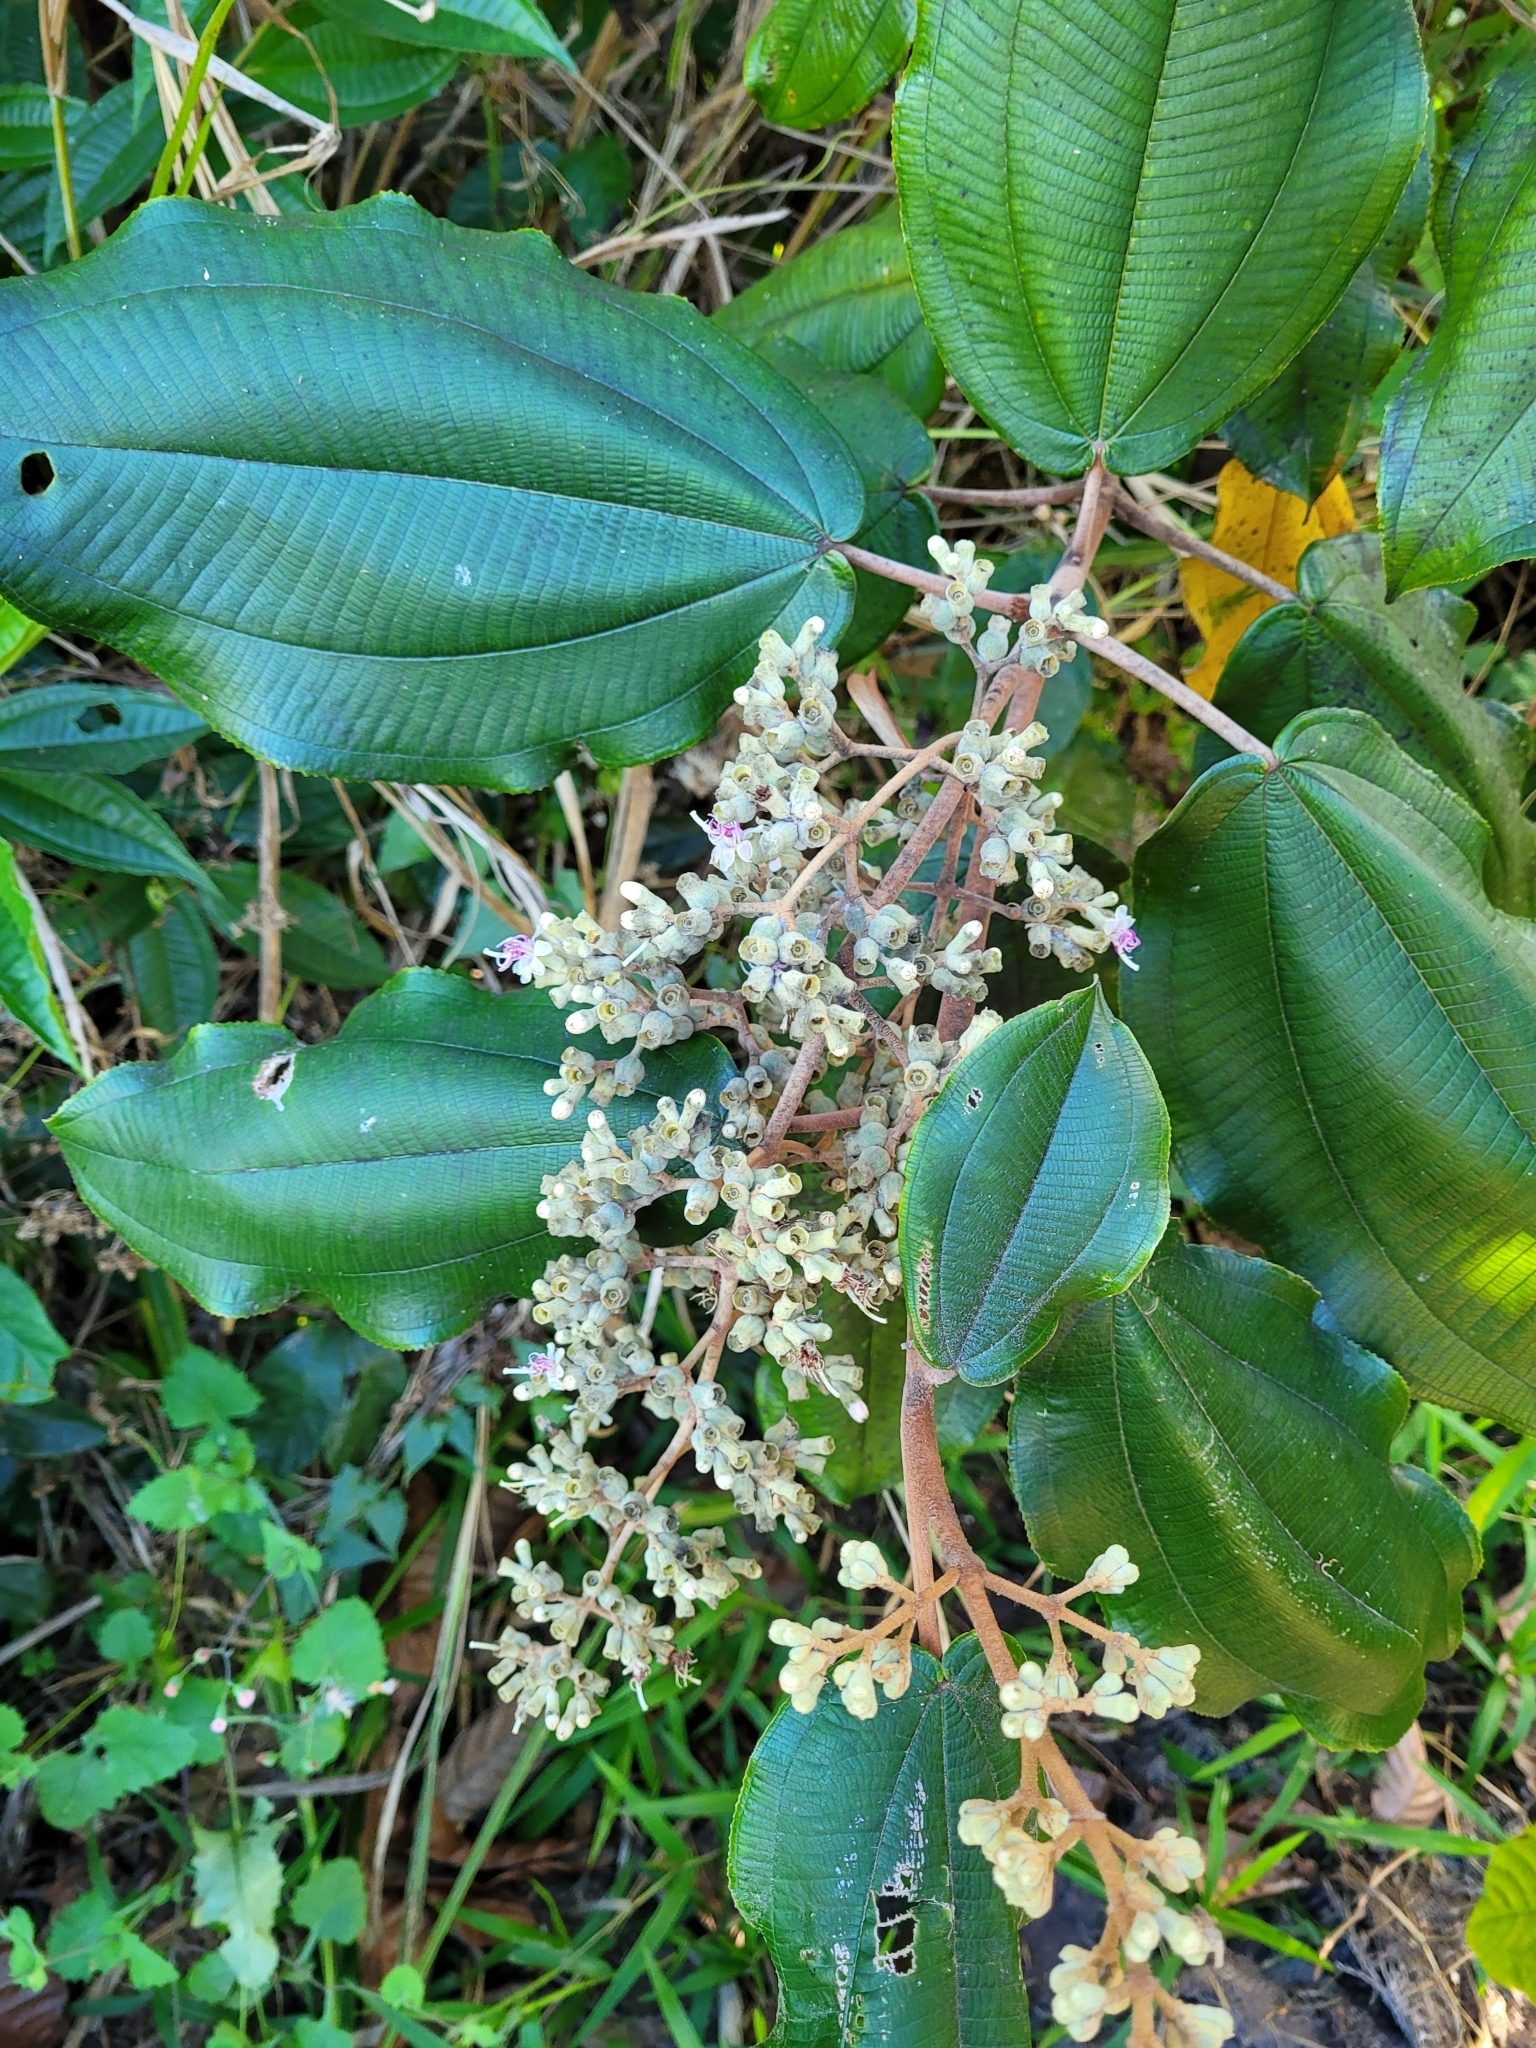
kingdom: Plantae
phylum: Tracheophyta
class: Magnoliopsida
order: Myrtales
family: Melastomataceae
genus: Miconia
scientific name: Miconia serrulata
